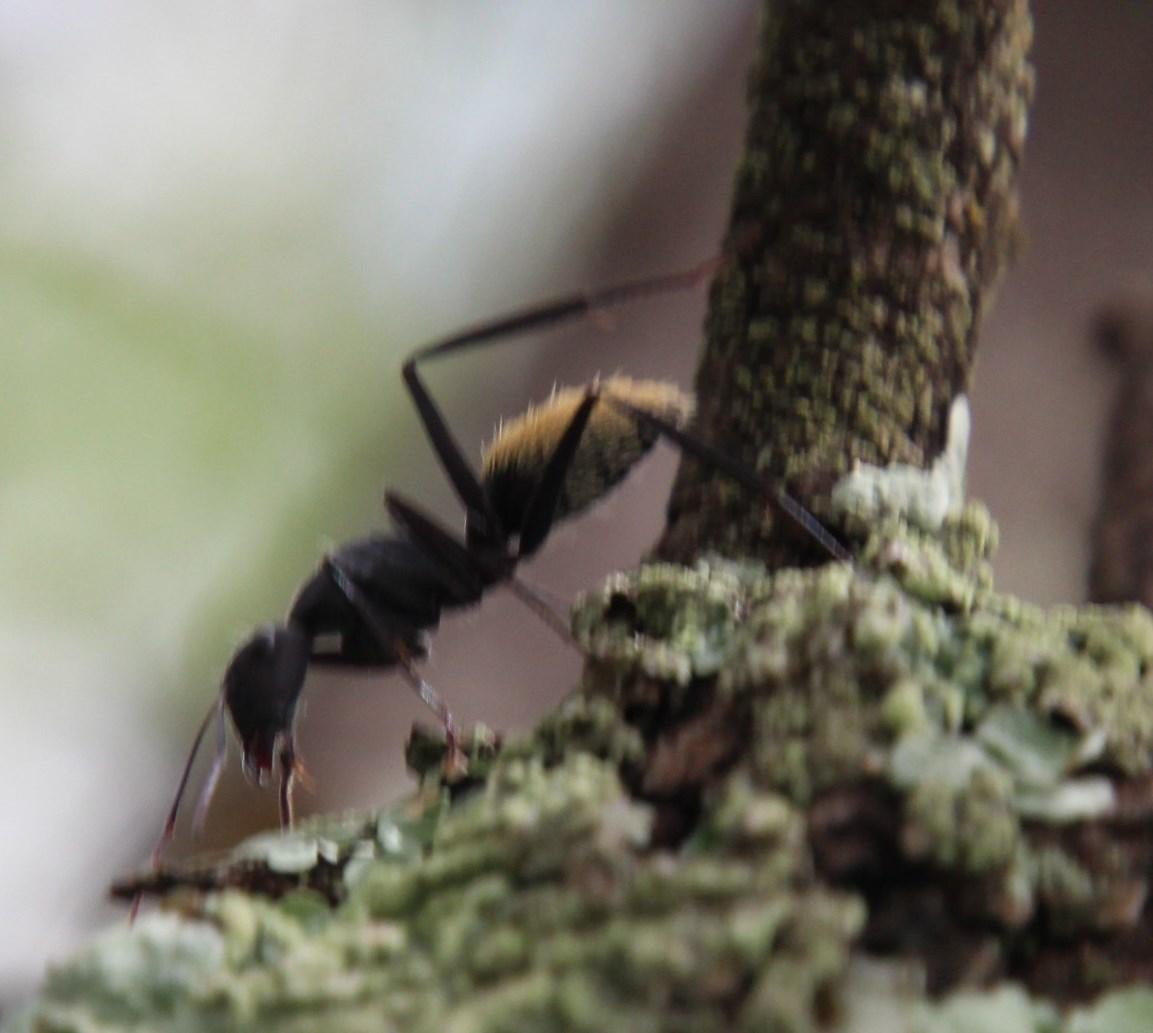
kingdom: Animalia
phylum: Arthropoda
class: Insecta
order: Hymenoptera
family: Formicidae
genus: Camponotus
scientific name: Camponotus fulvopilosus
